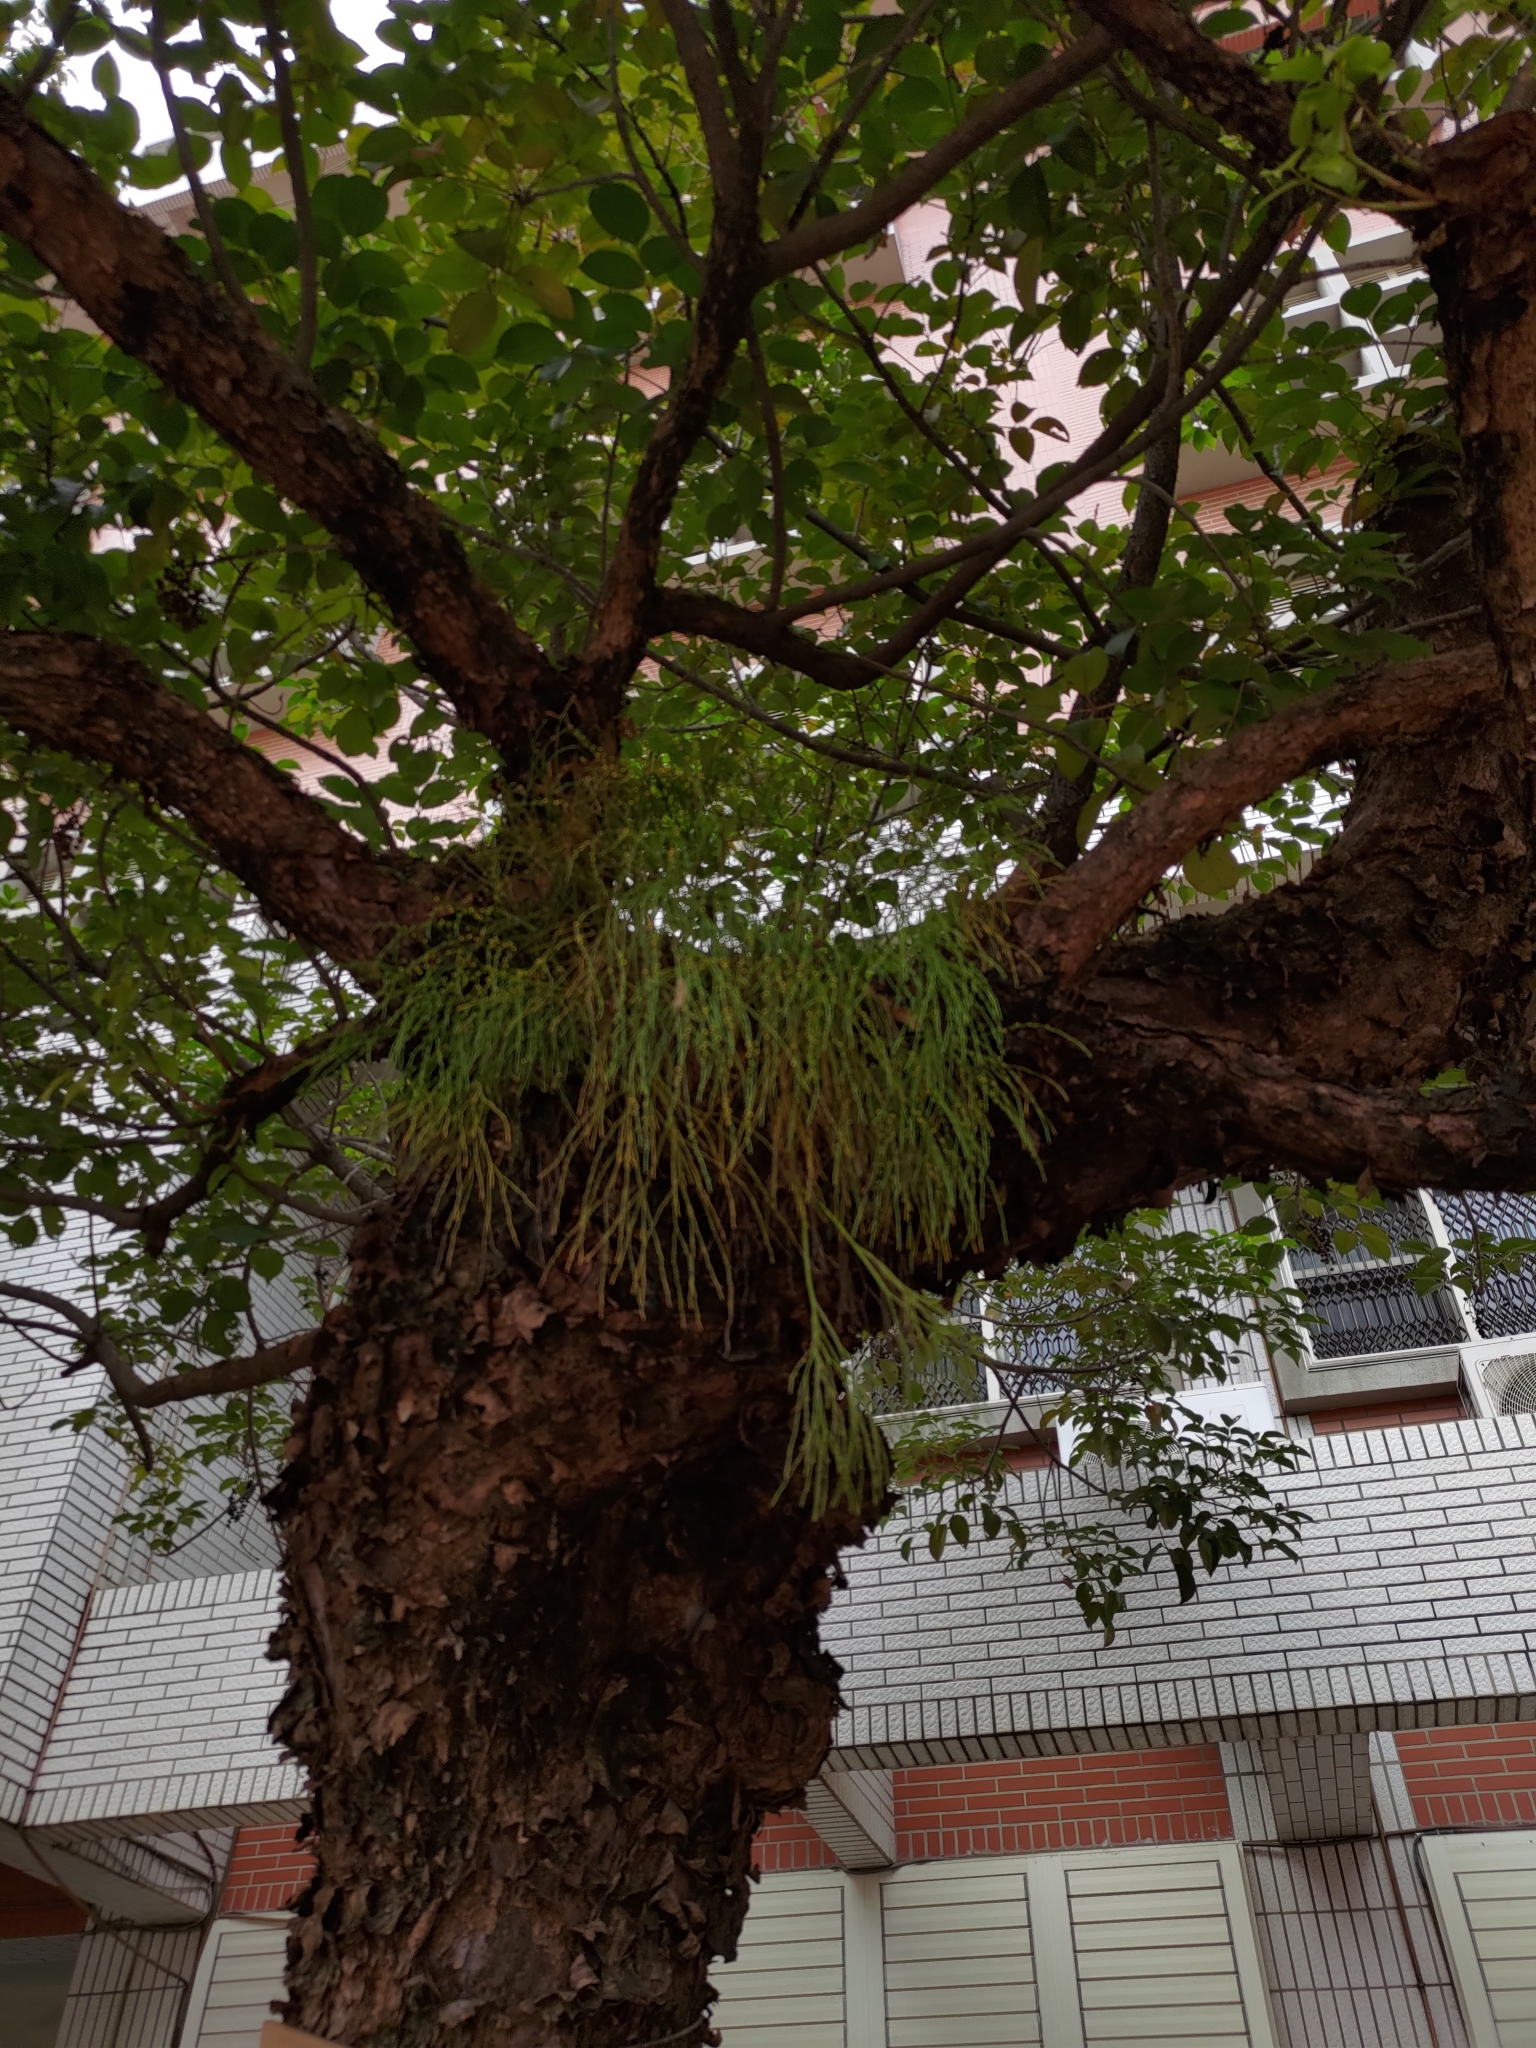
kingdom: Plantae
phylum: Tracheophyta
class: Polypodiopsida
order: Psilotales
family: Psilotaceae
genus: Psilotum
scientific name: Psilotum nudum
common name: Skeleton fork fern
